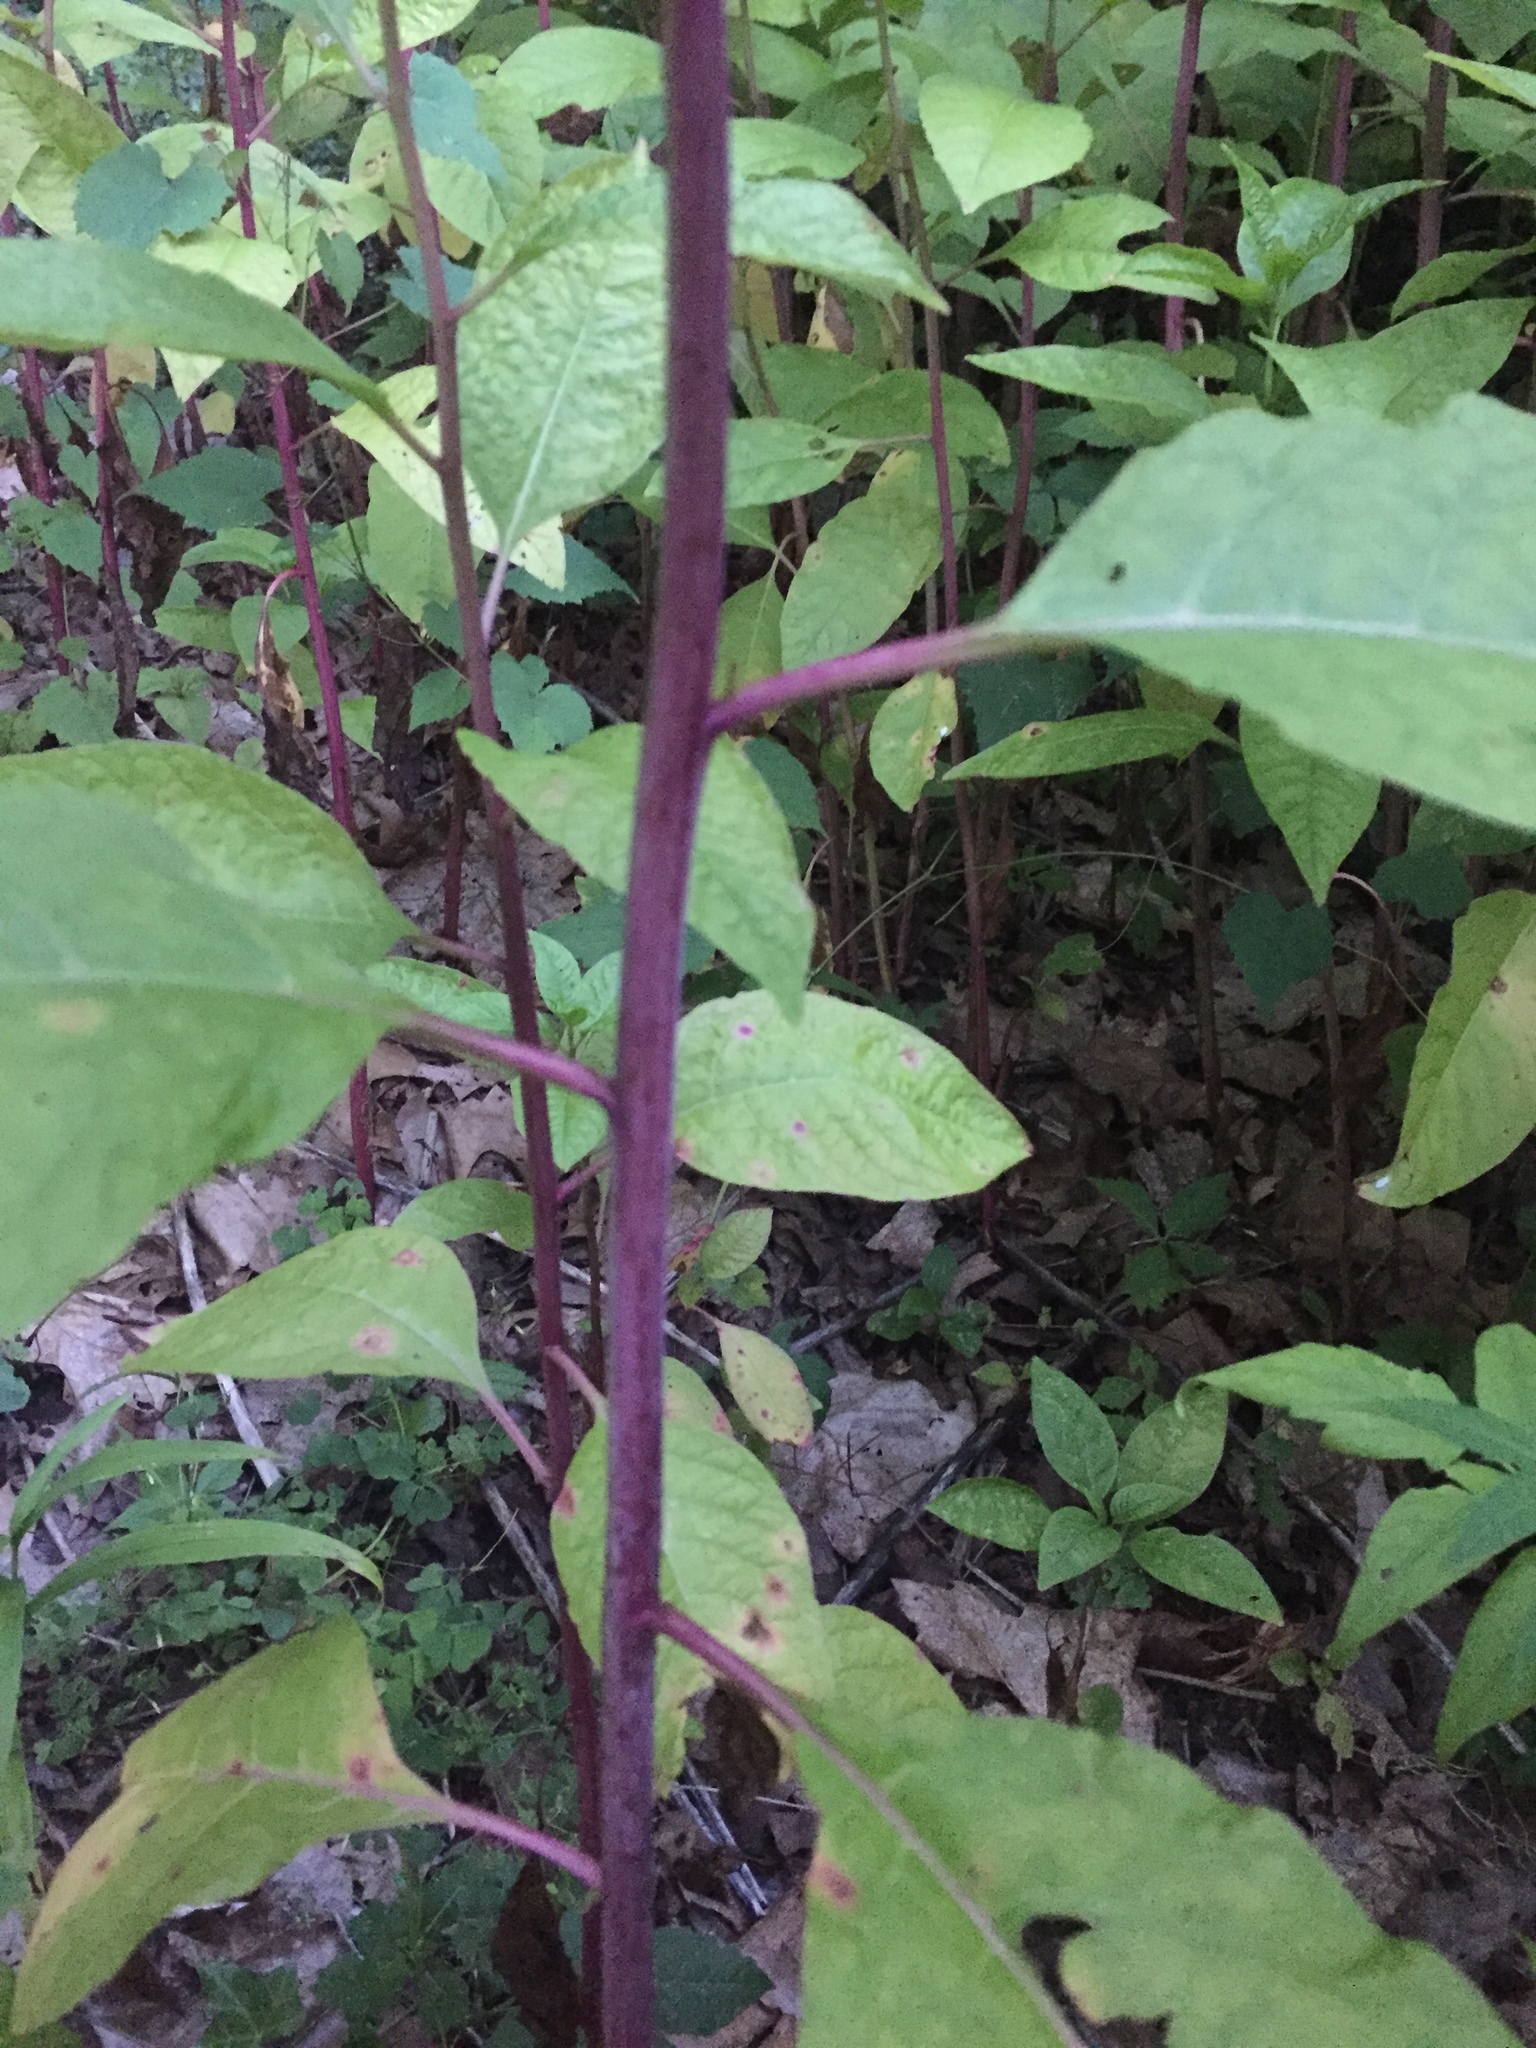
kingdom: Plantae
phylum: Tracheophyta
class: Magnoliopsida
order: Caryophyllales
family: Phytolaccaceae
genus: Phytolacca
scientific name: Phytolacca americana
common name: American pokeweed
